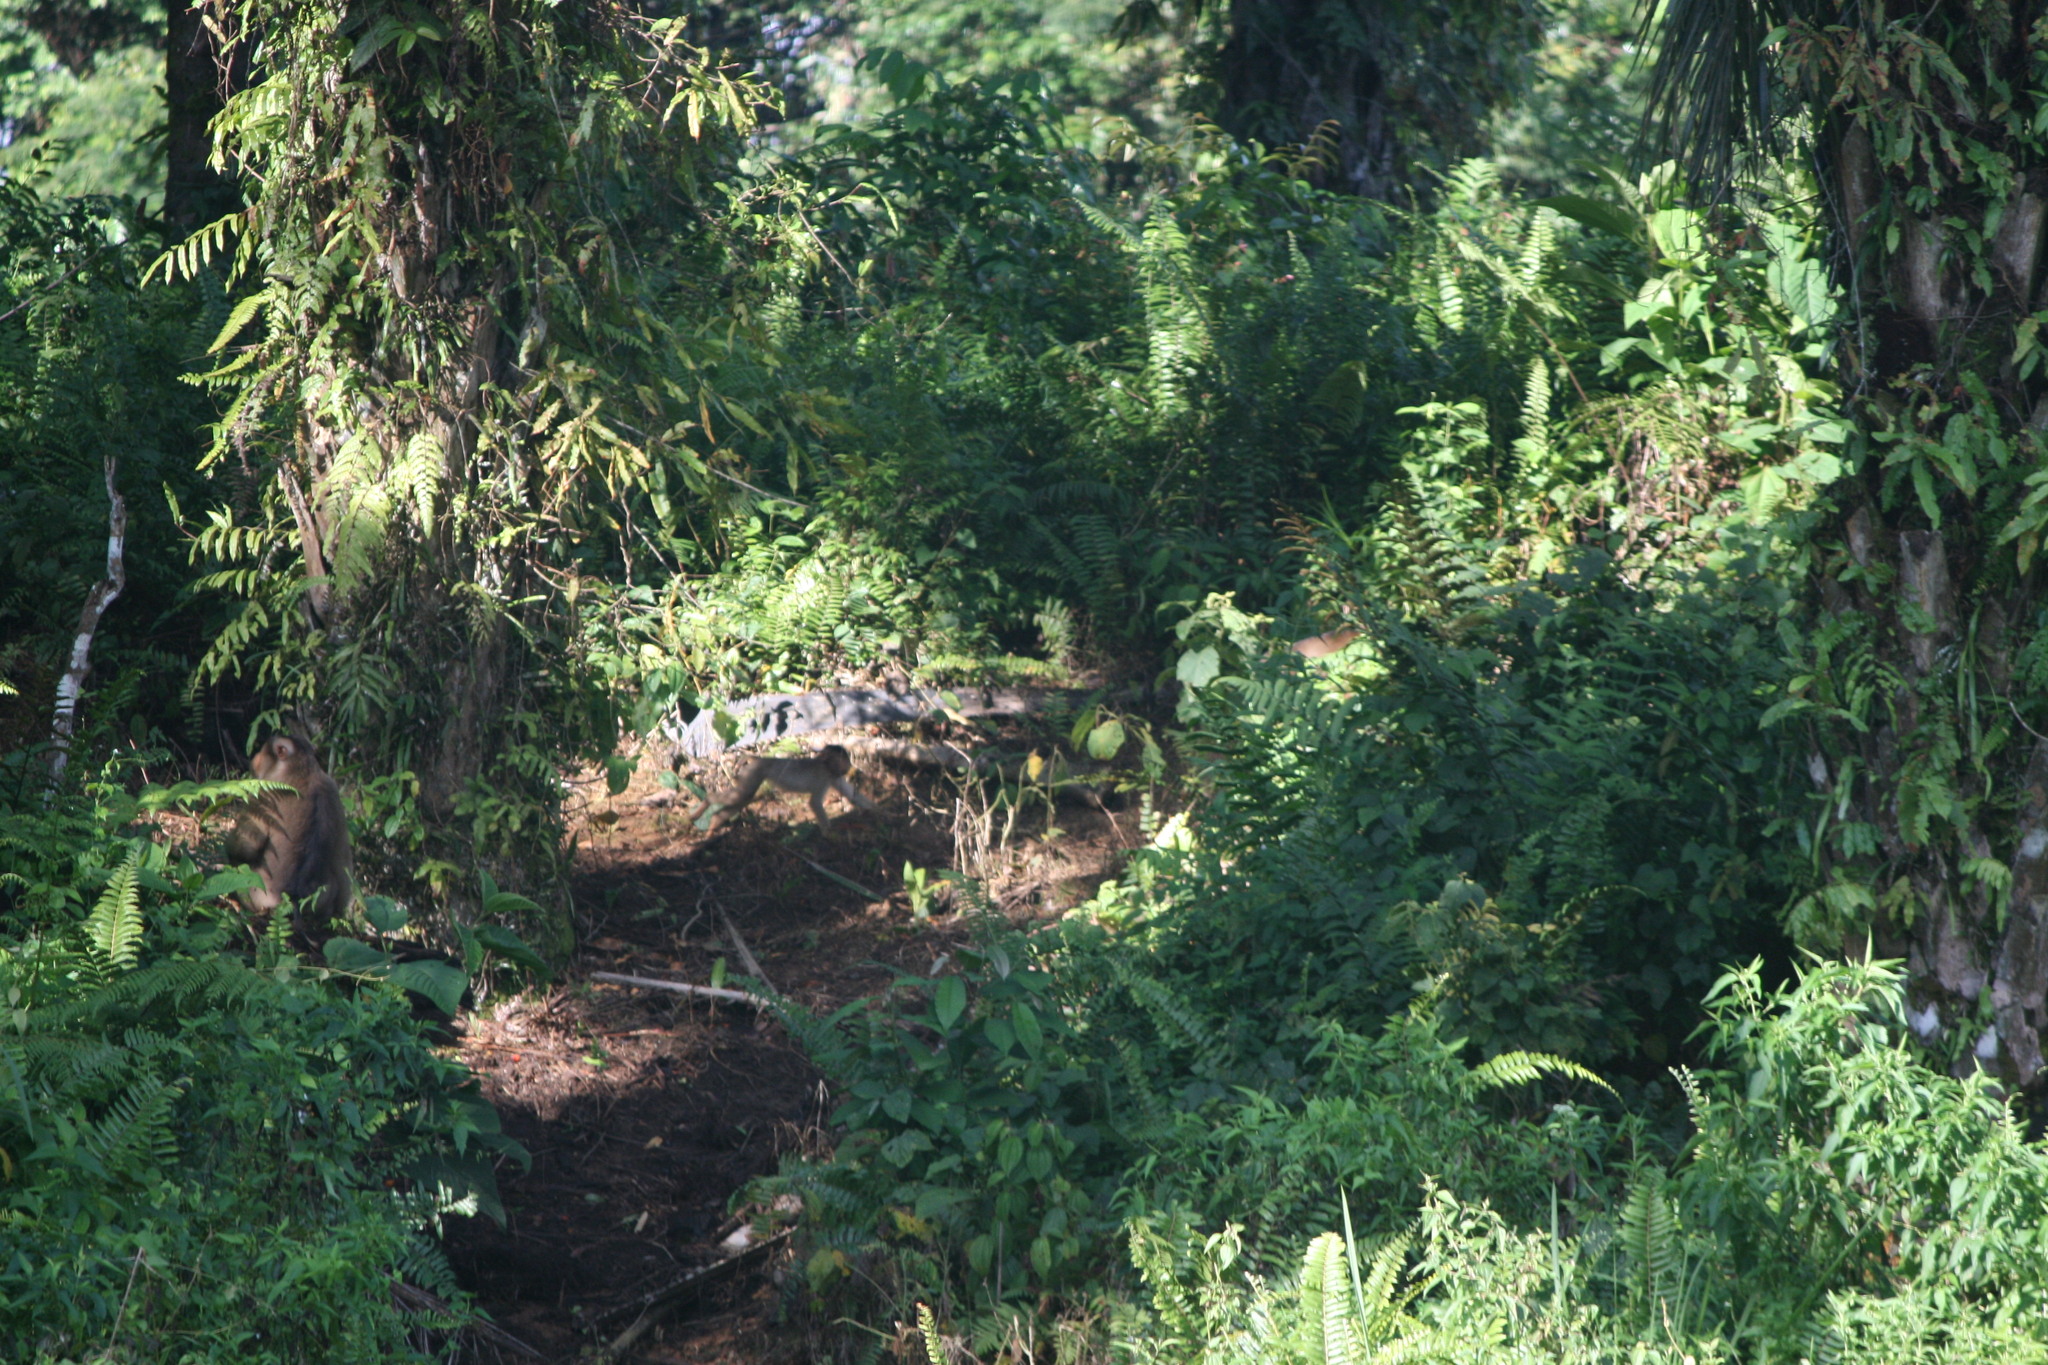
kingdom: Animalia
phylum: Chordata
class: Mammalia
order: Primates
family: Cercopithecidae
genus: Macaca
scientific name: Macaca nemestrina
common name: Southern pig-tailed macaque
